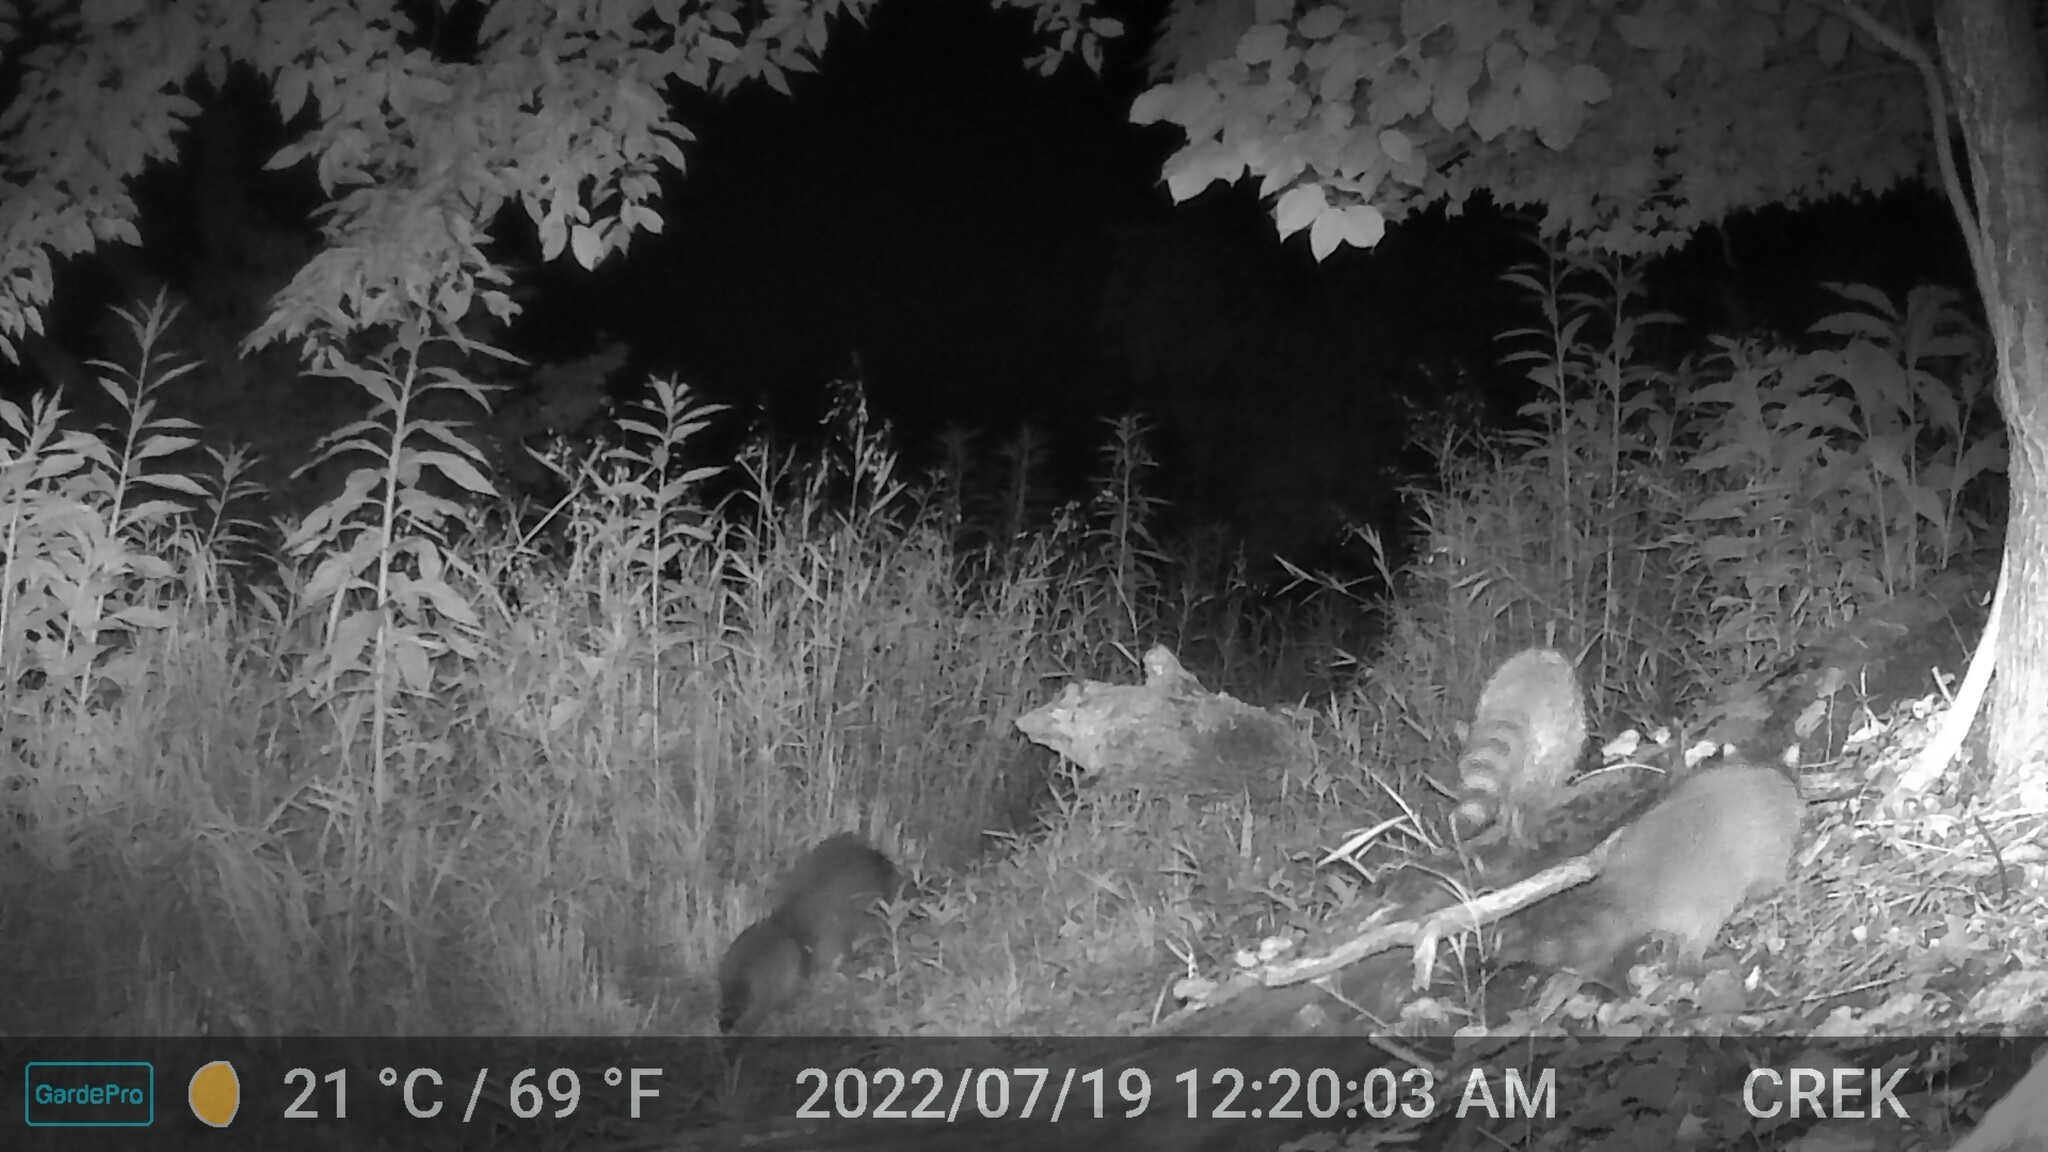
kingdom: Animalia
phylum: Chordata
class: Mammalia
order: Carnivora
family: Procyonidae
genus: Procyon
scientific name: Procyon lotor
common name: Raccoon
